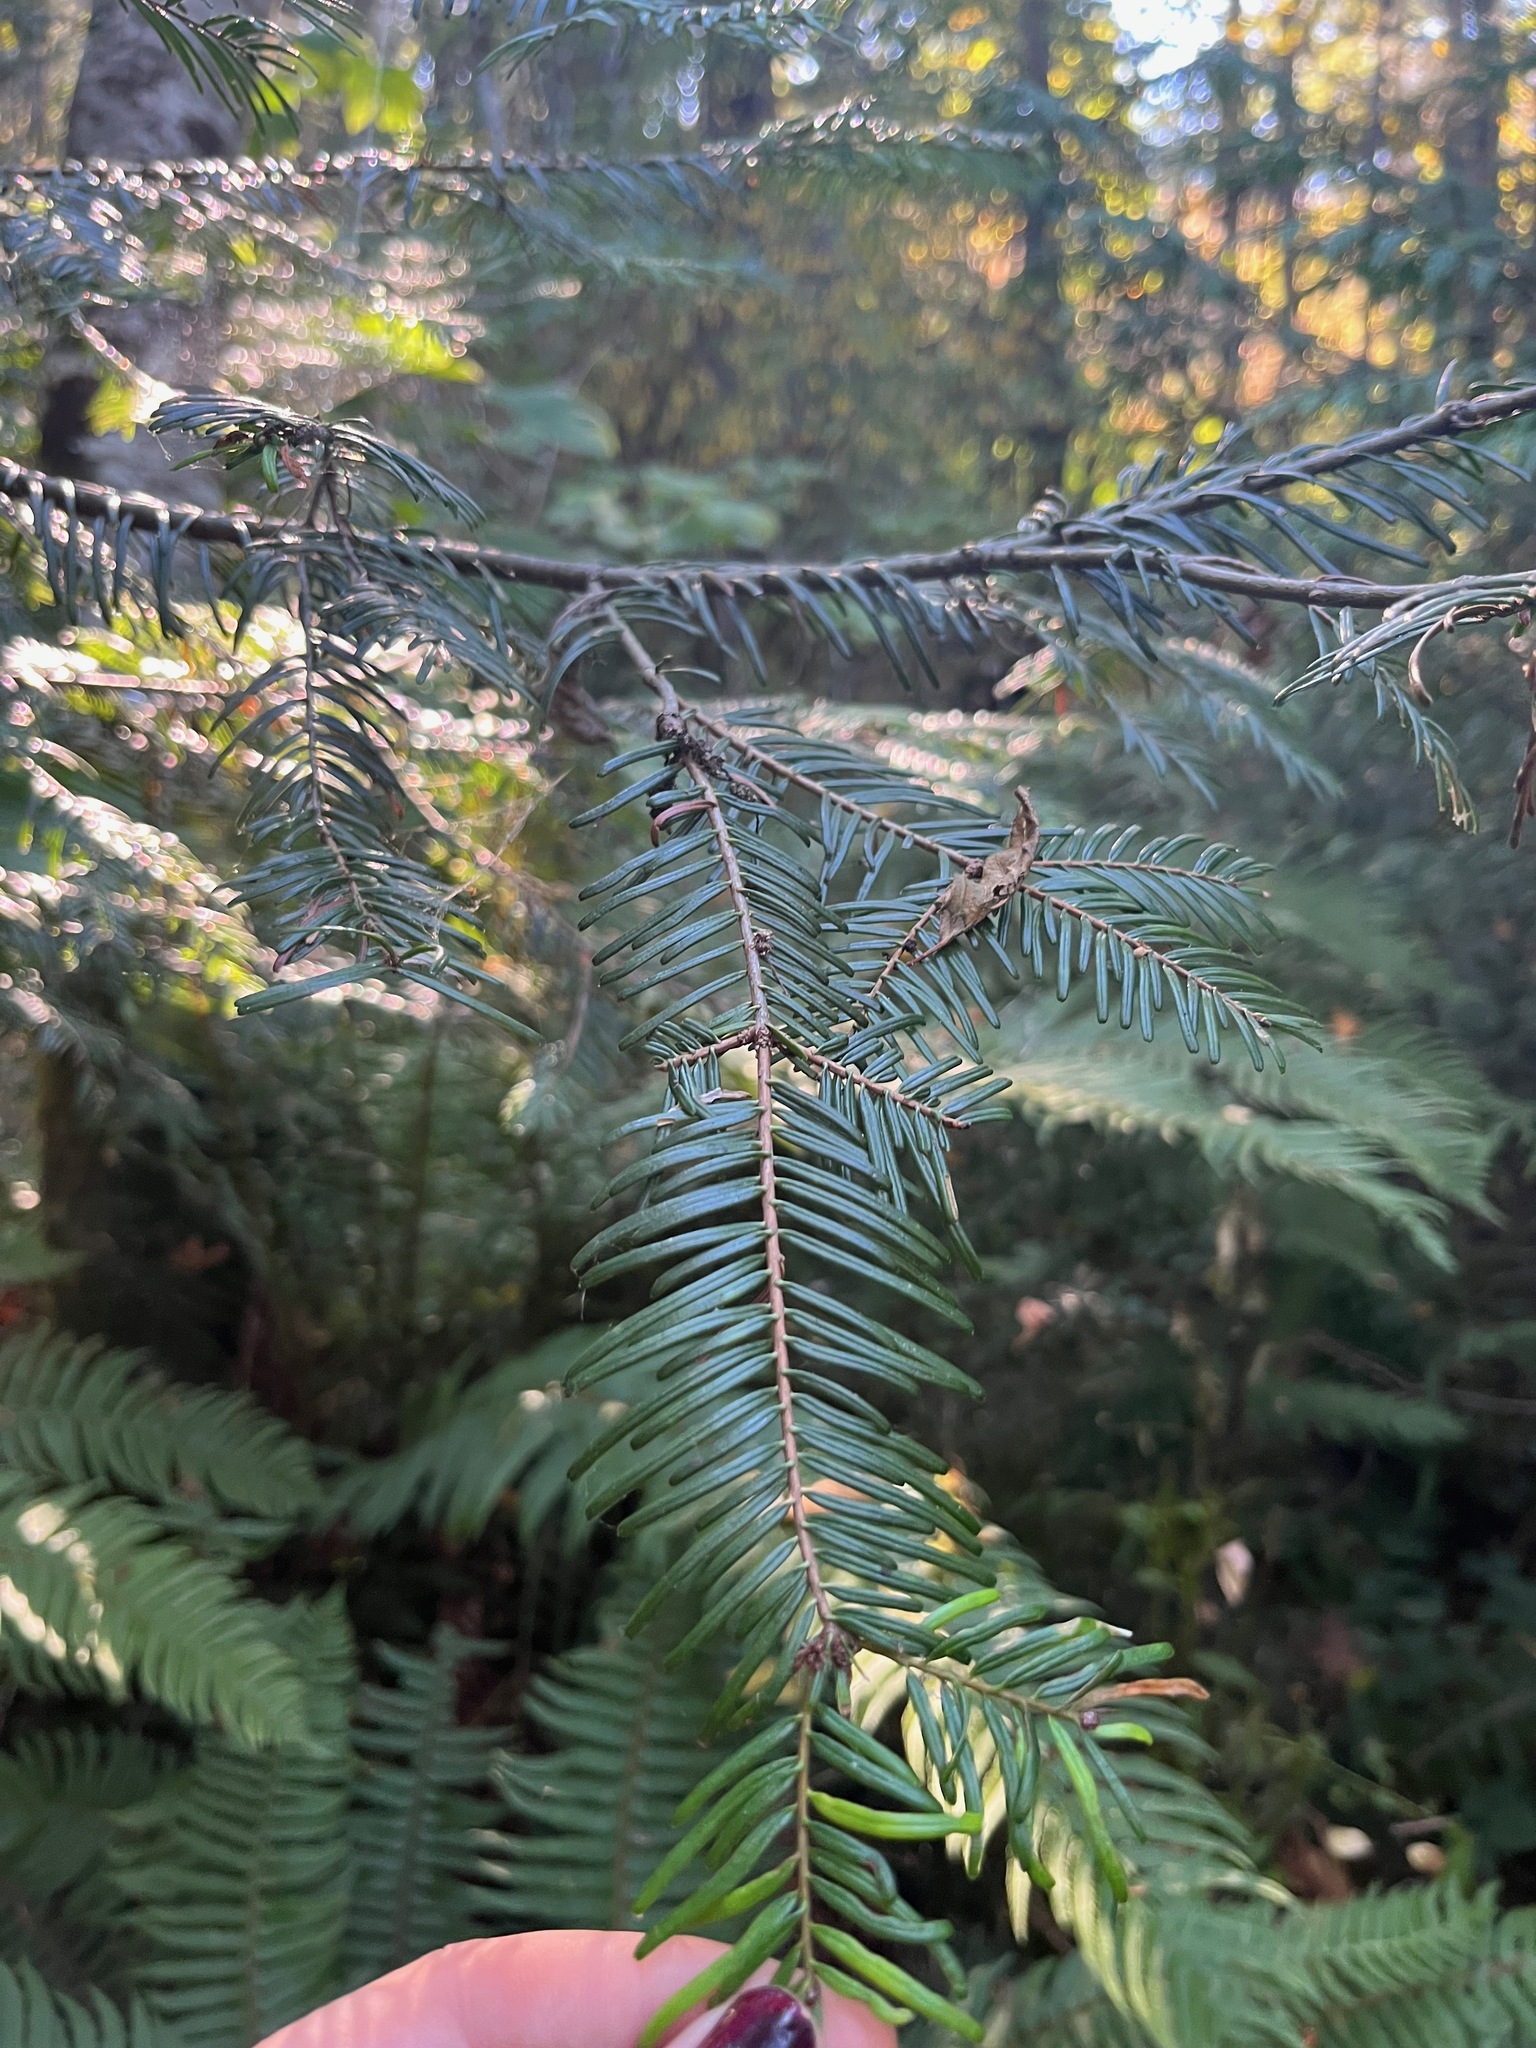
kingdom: Plantae
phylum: Tracheophyta
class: Pinopsida
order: Pinales
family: Pinaceae
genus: Abies
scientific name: Abies grandis
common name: Giant fir
